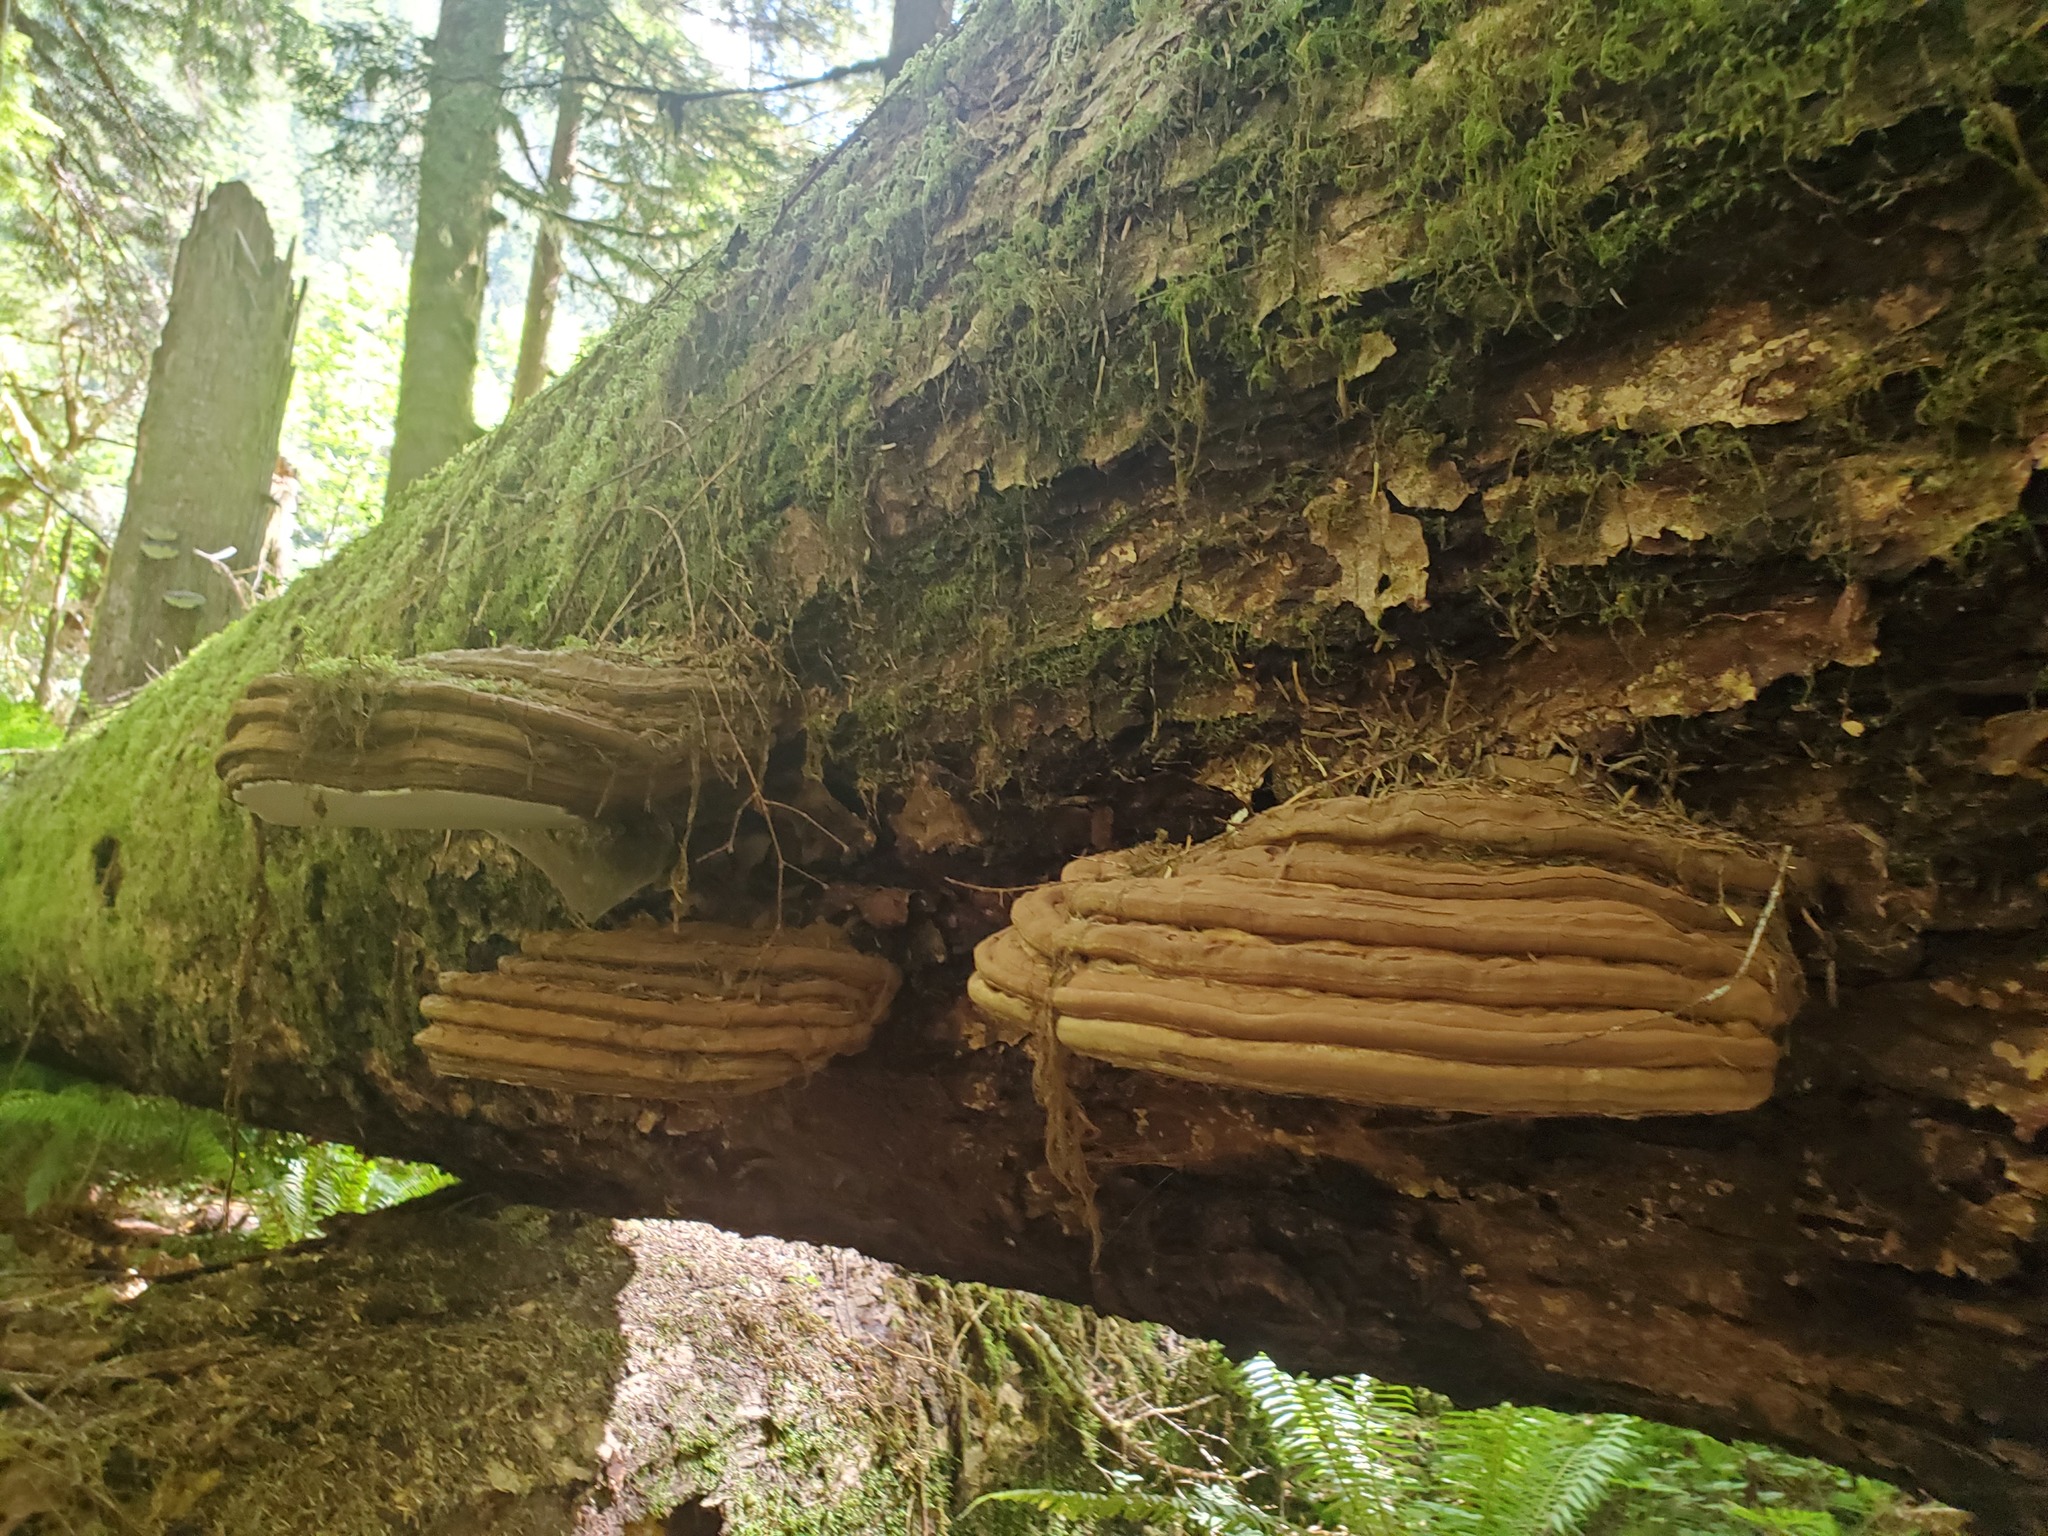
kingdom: Fungi
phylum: Basidiomycota
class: Agaricomycetes
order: Polyporales
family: Polyporaceae
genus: Ganoderma
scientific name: Ganoderma brownii
